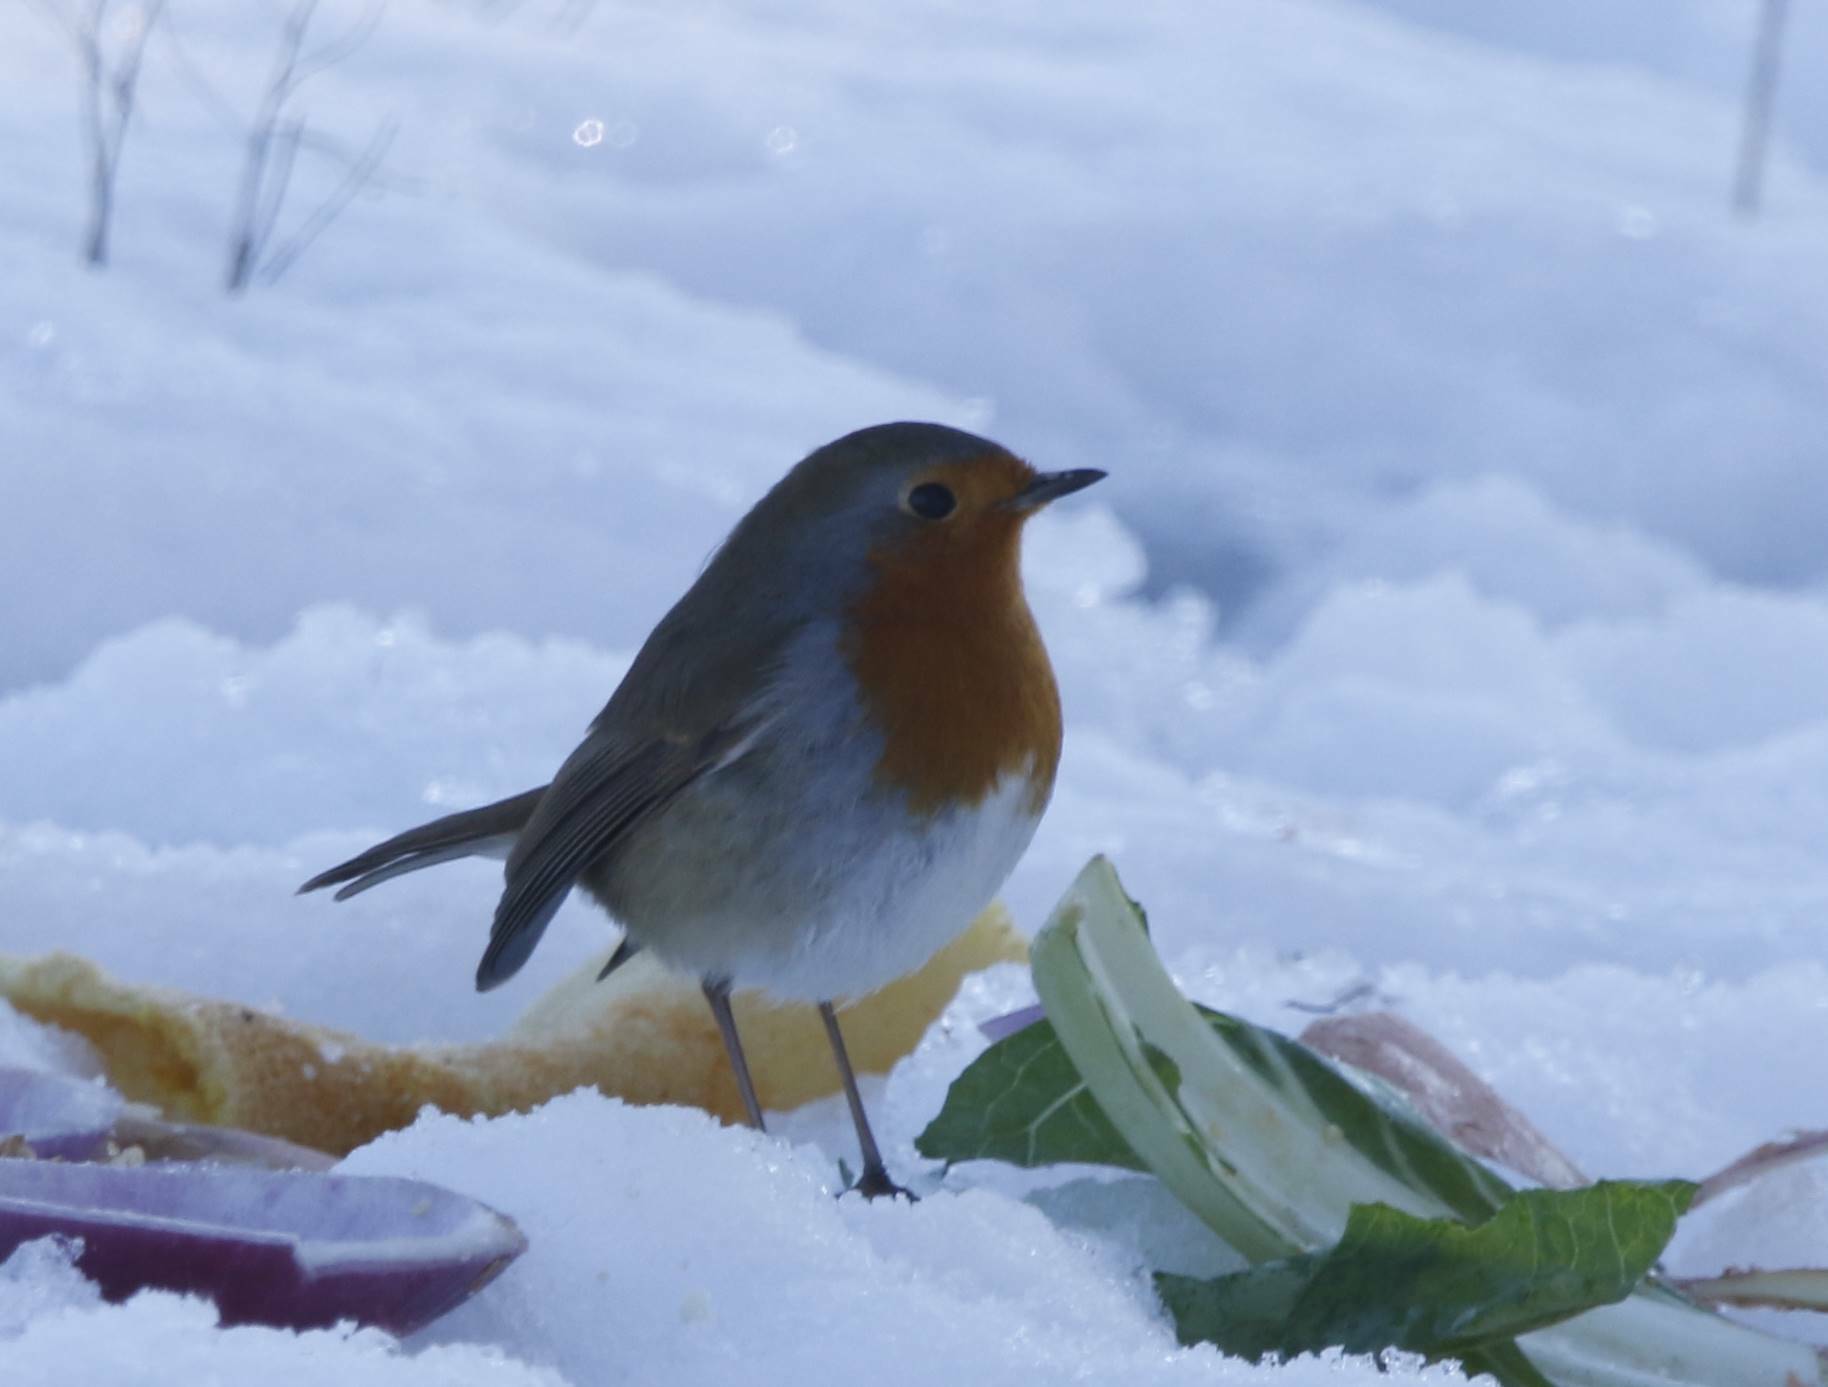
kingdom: Animalia
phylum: Chordata
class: Aves
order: Passeriformes
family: Muscicapidae
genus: Erithacus
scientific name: Erithacus rubecula
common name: European robin
